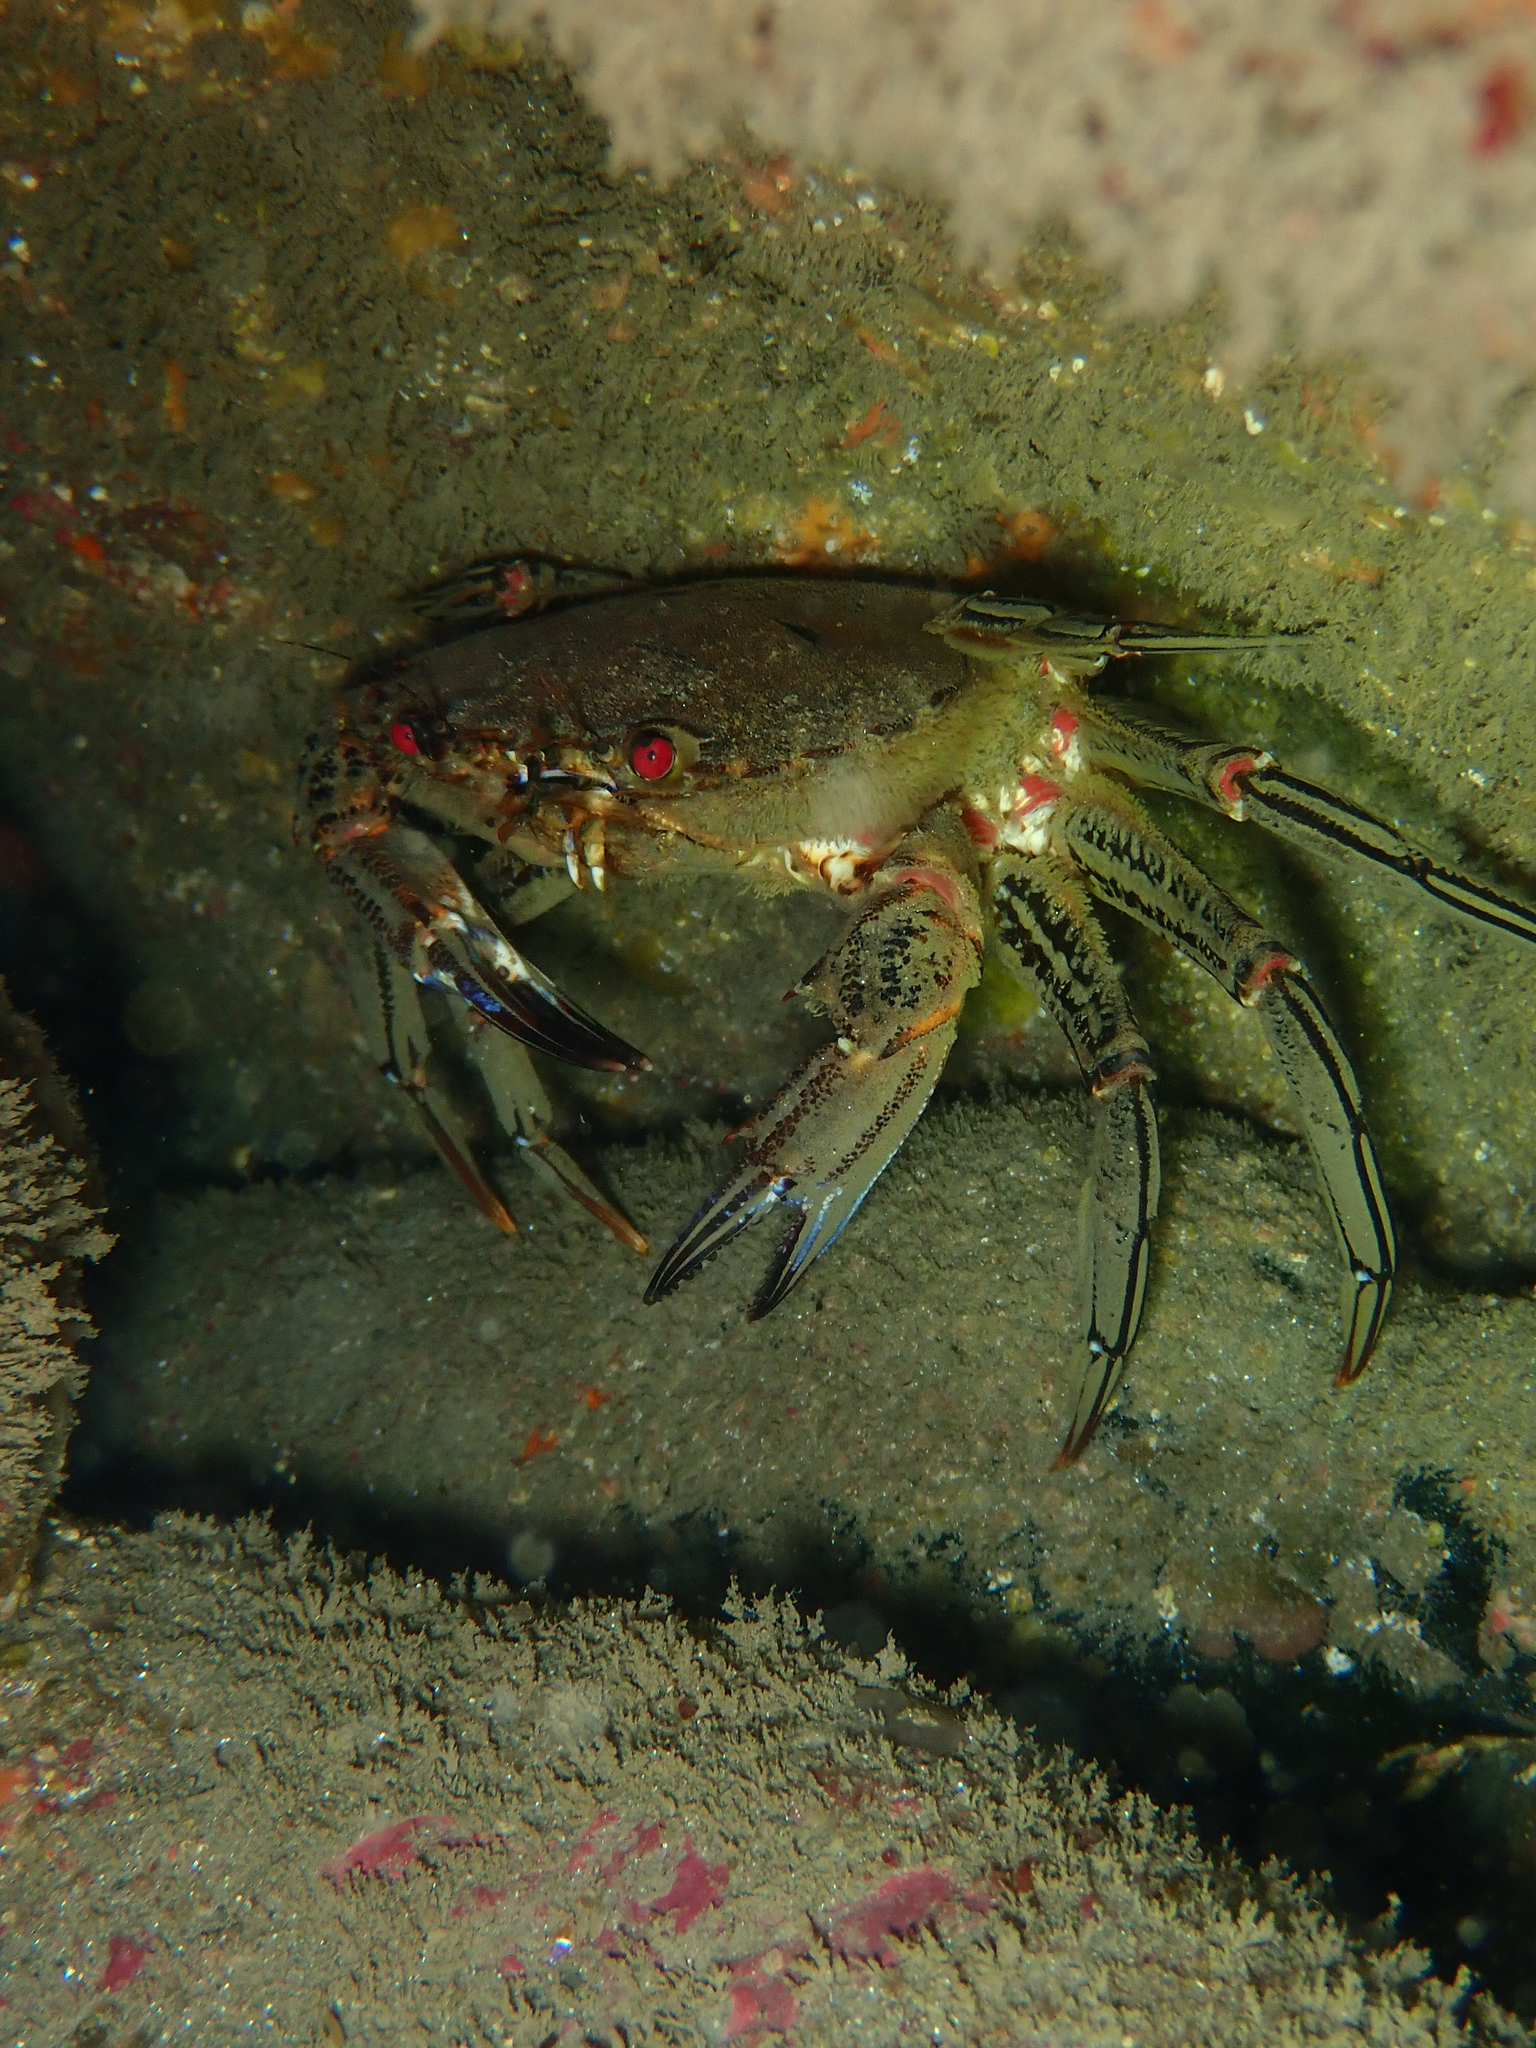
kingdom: Animalia
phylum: Arthropoda
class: Malacostraca
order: Decapoda
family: Polybiidae
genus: Necora
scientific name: Necora puber
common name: Velvet swimming crab
